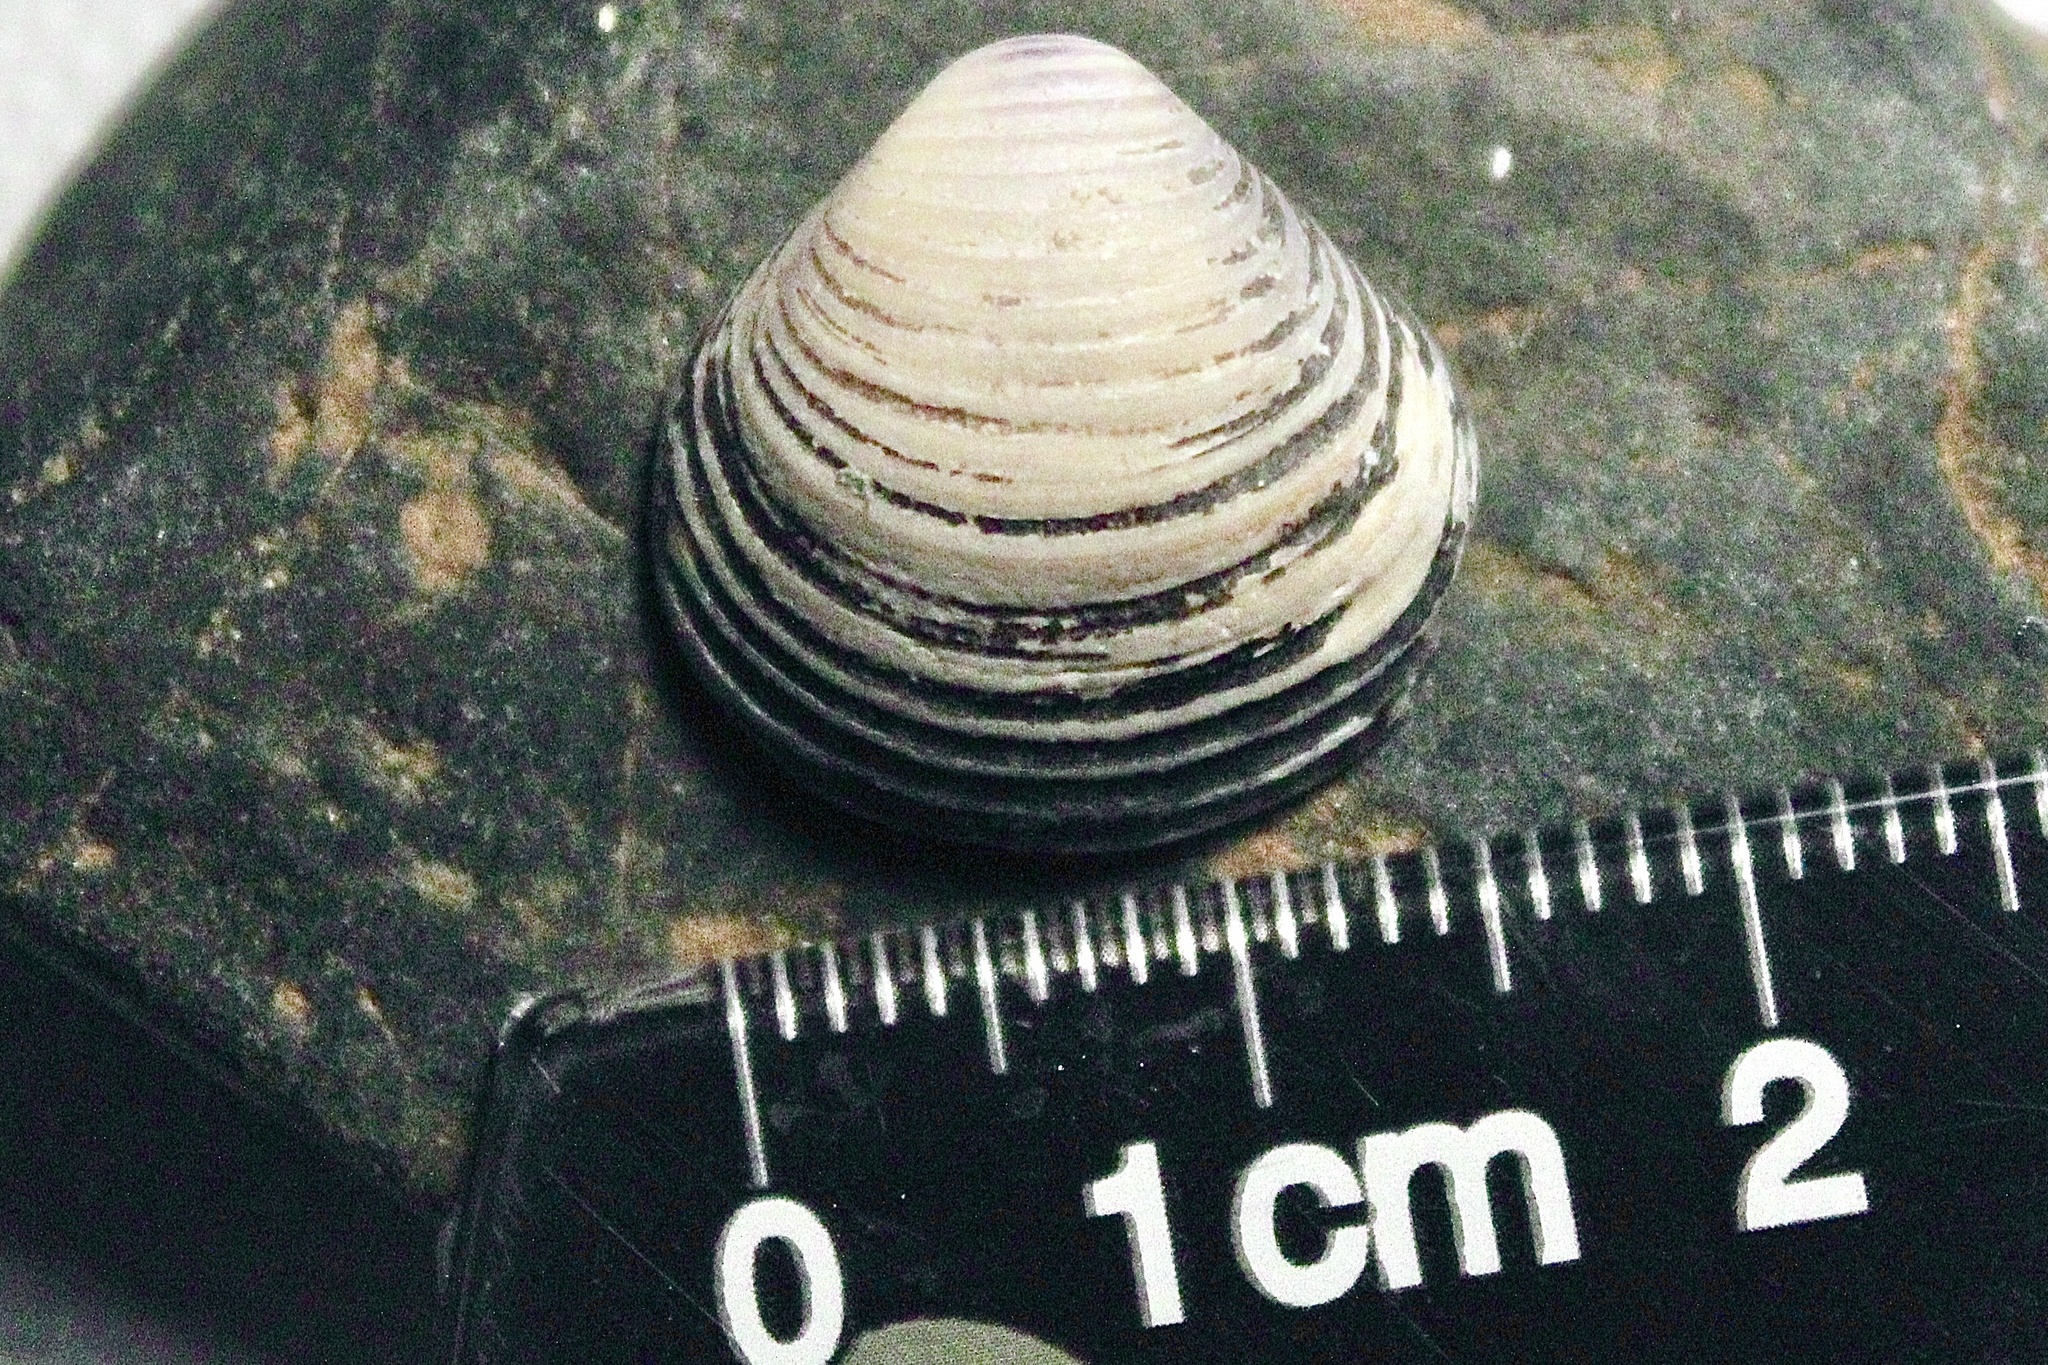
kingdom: Animalia
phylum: Mollusca
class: Bivalvia
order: Venerida
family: Cyrenidae
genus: Corbicula
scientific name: Corbicula fluminea
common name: Asian clam
